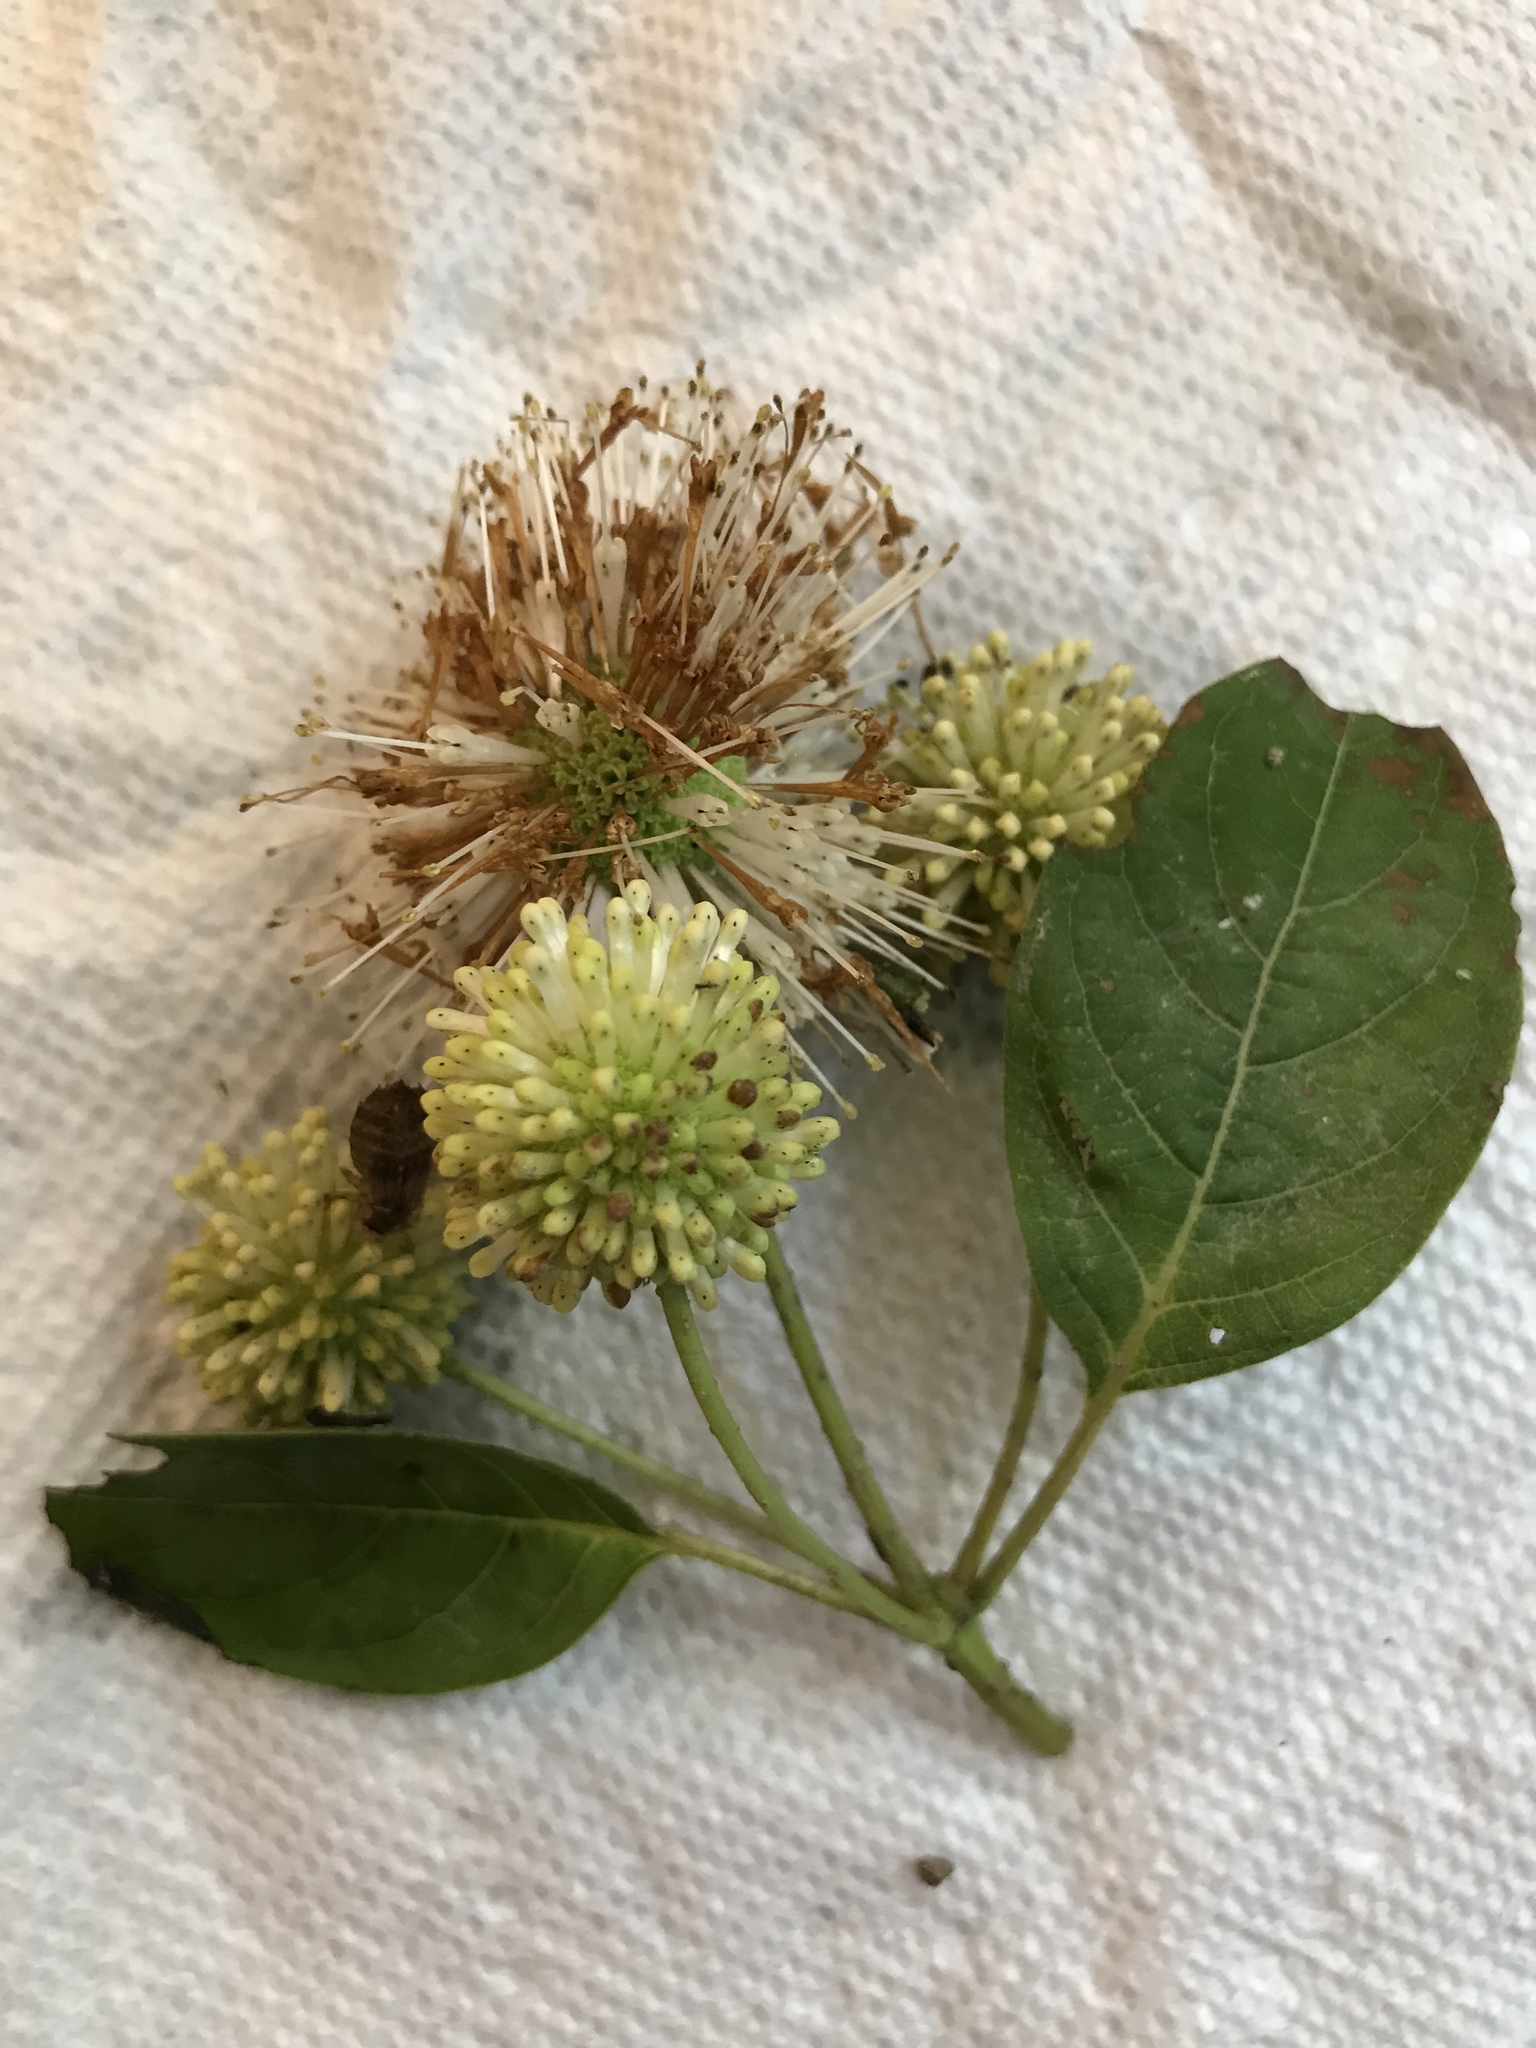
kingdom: Plantae
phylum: Tracheophyta
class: Magnoliopsida
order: Gentianales
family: Rubiaceae
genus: Cephalanthus
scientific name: Cephalanthus occidentalis
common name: Button-willow
